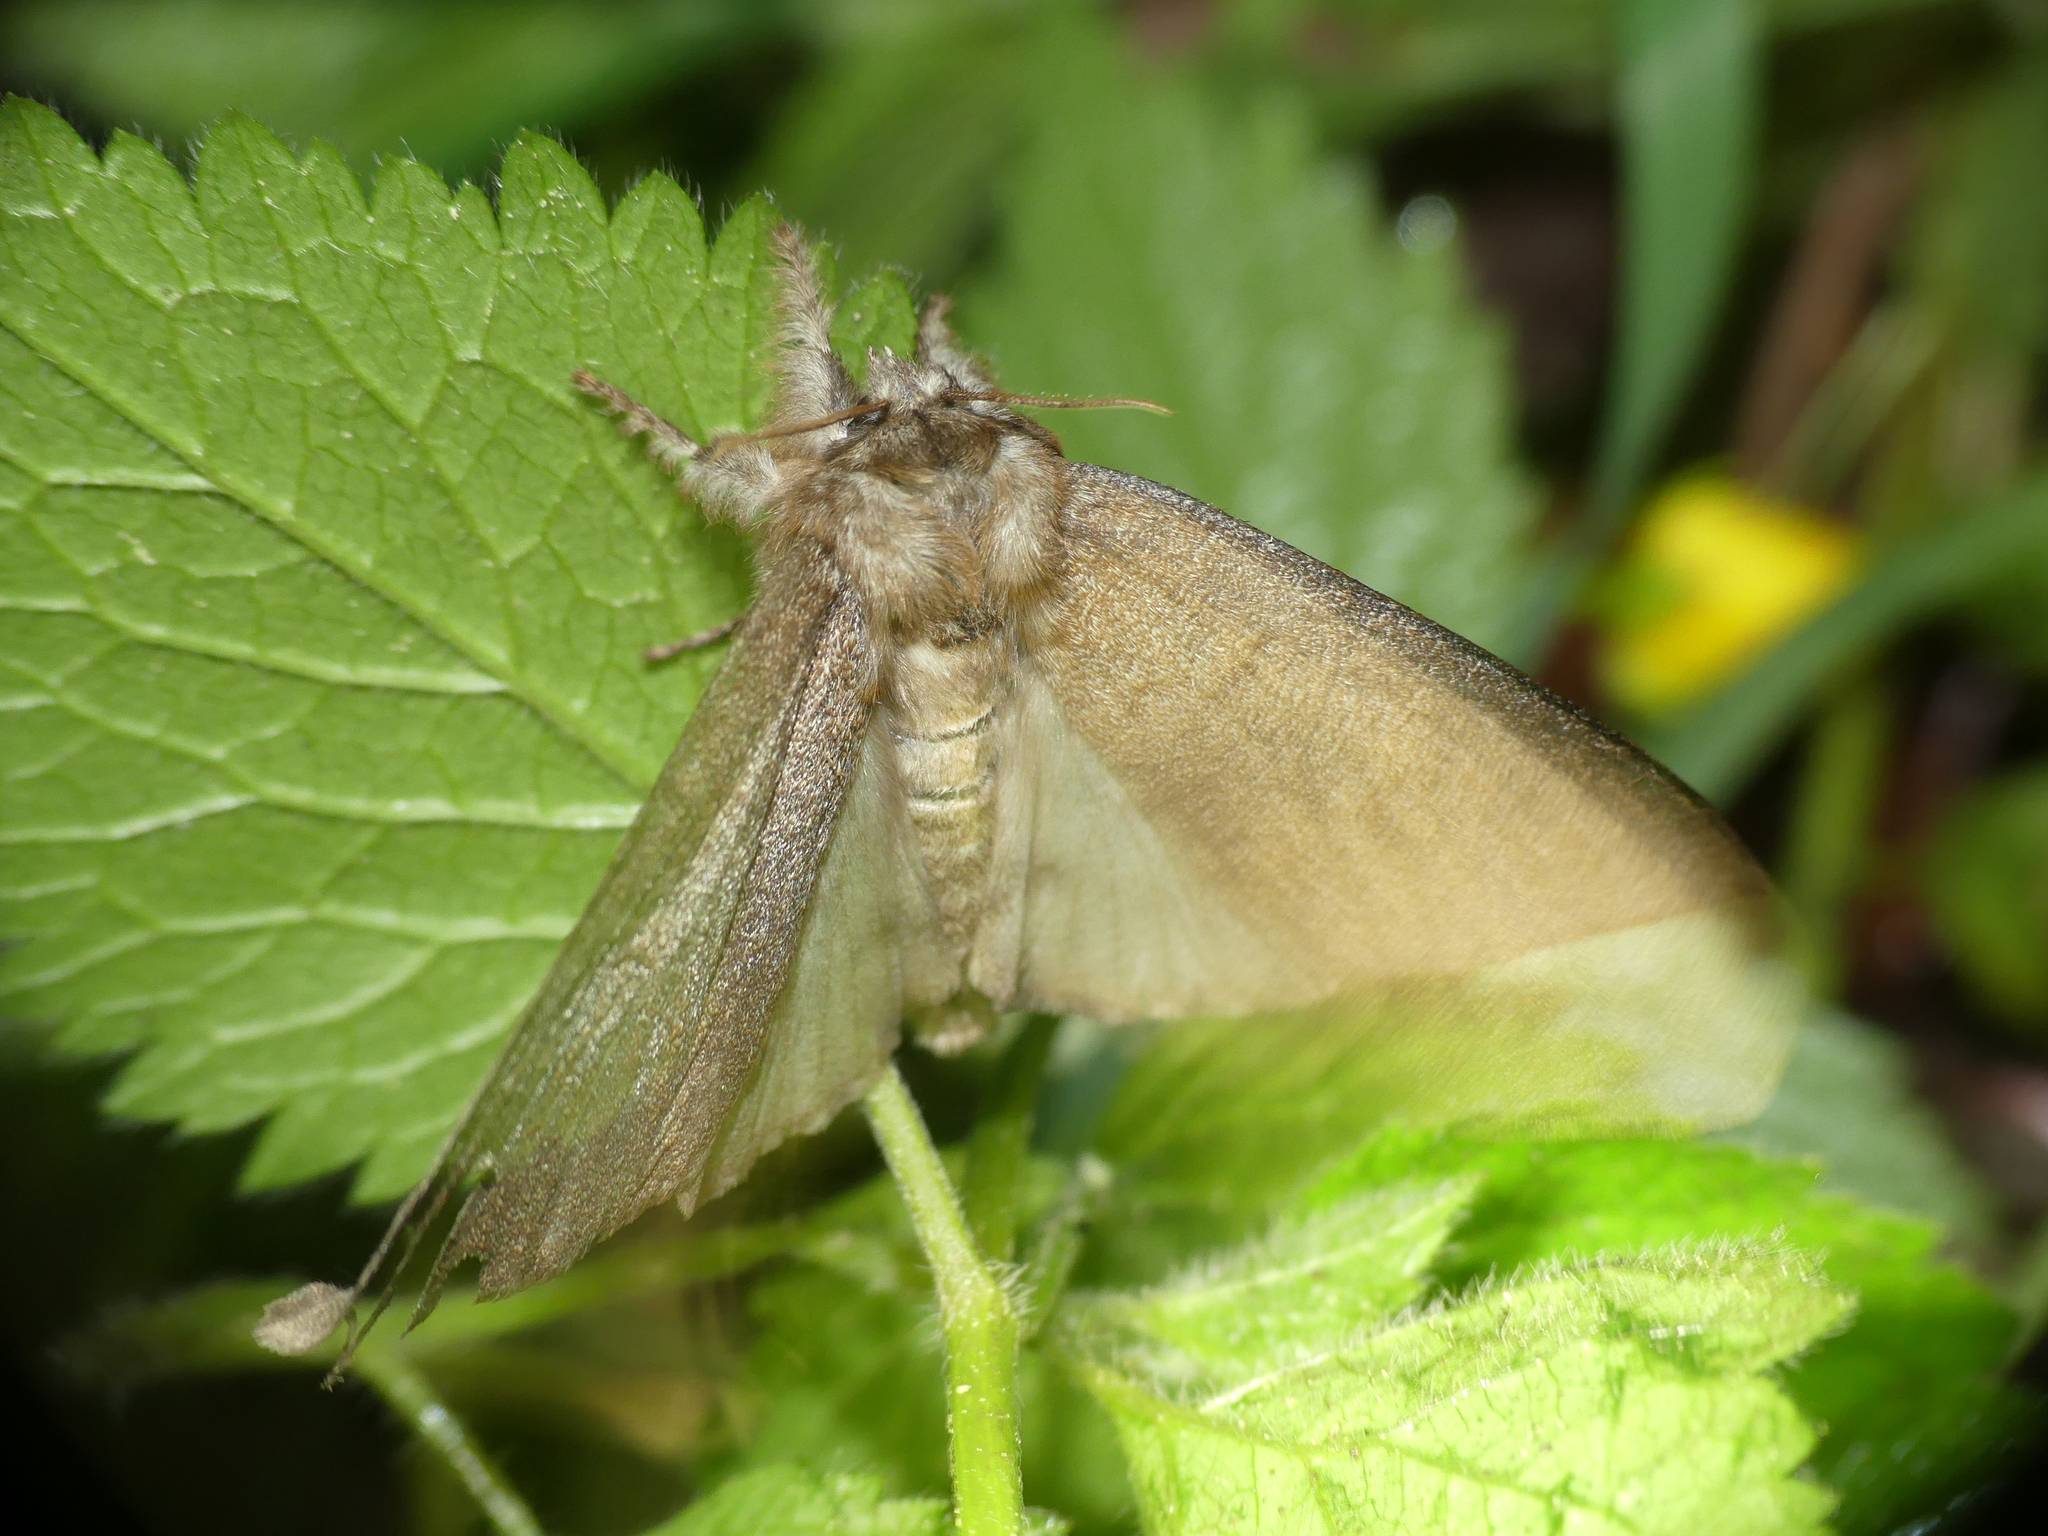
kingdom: Animalia
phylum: Arthropoda
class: Insecta
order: Lepidoptera
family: Erebidae
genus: Calliteara
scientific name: Calliteara pudibunda
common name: Pale tussock
